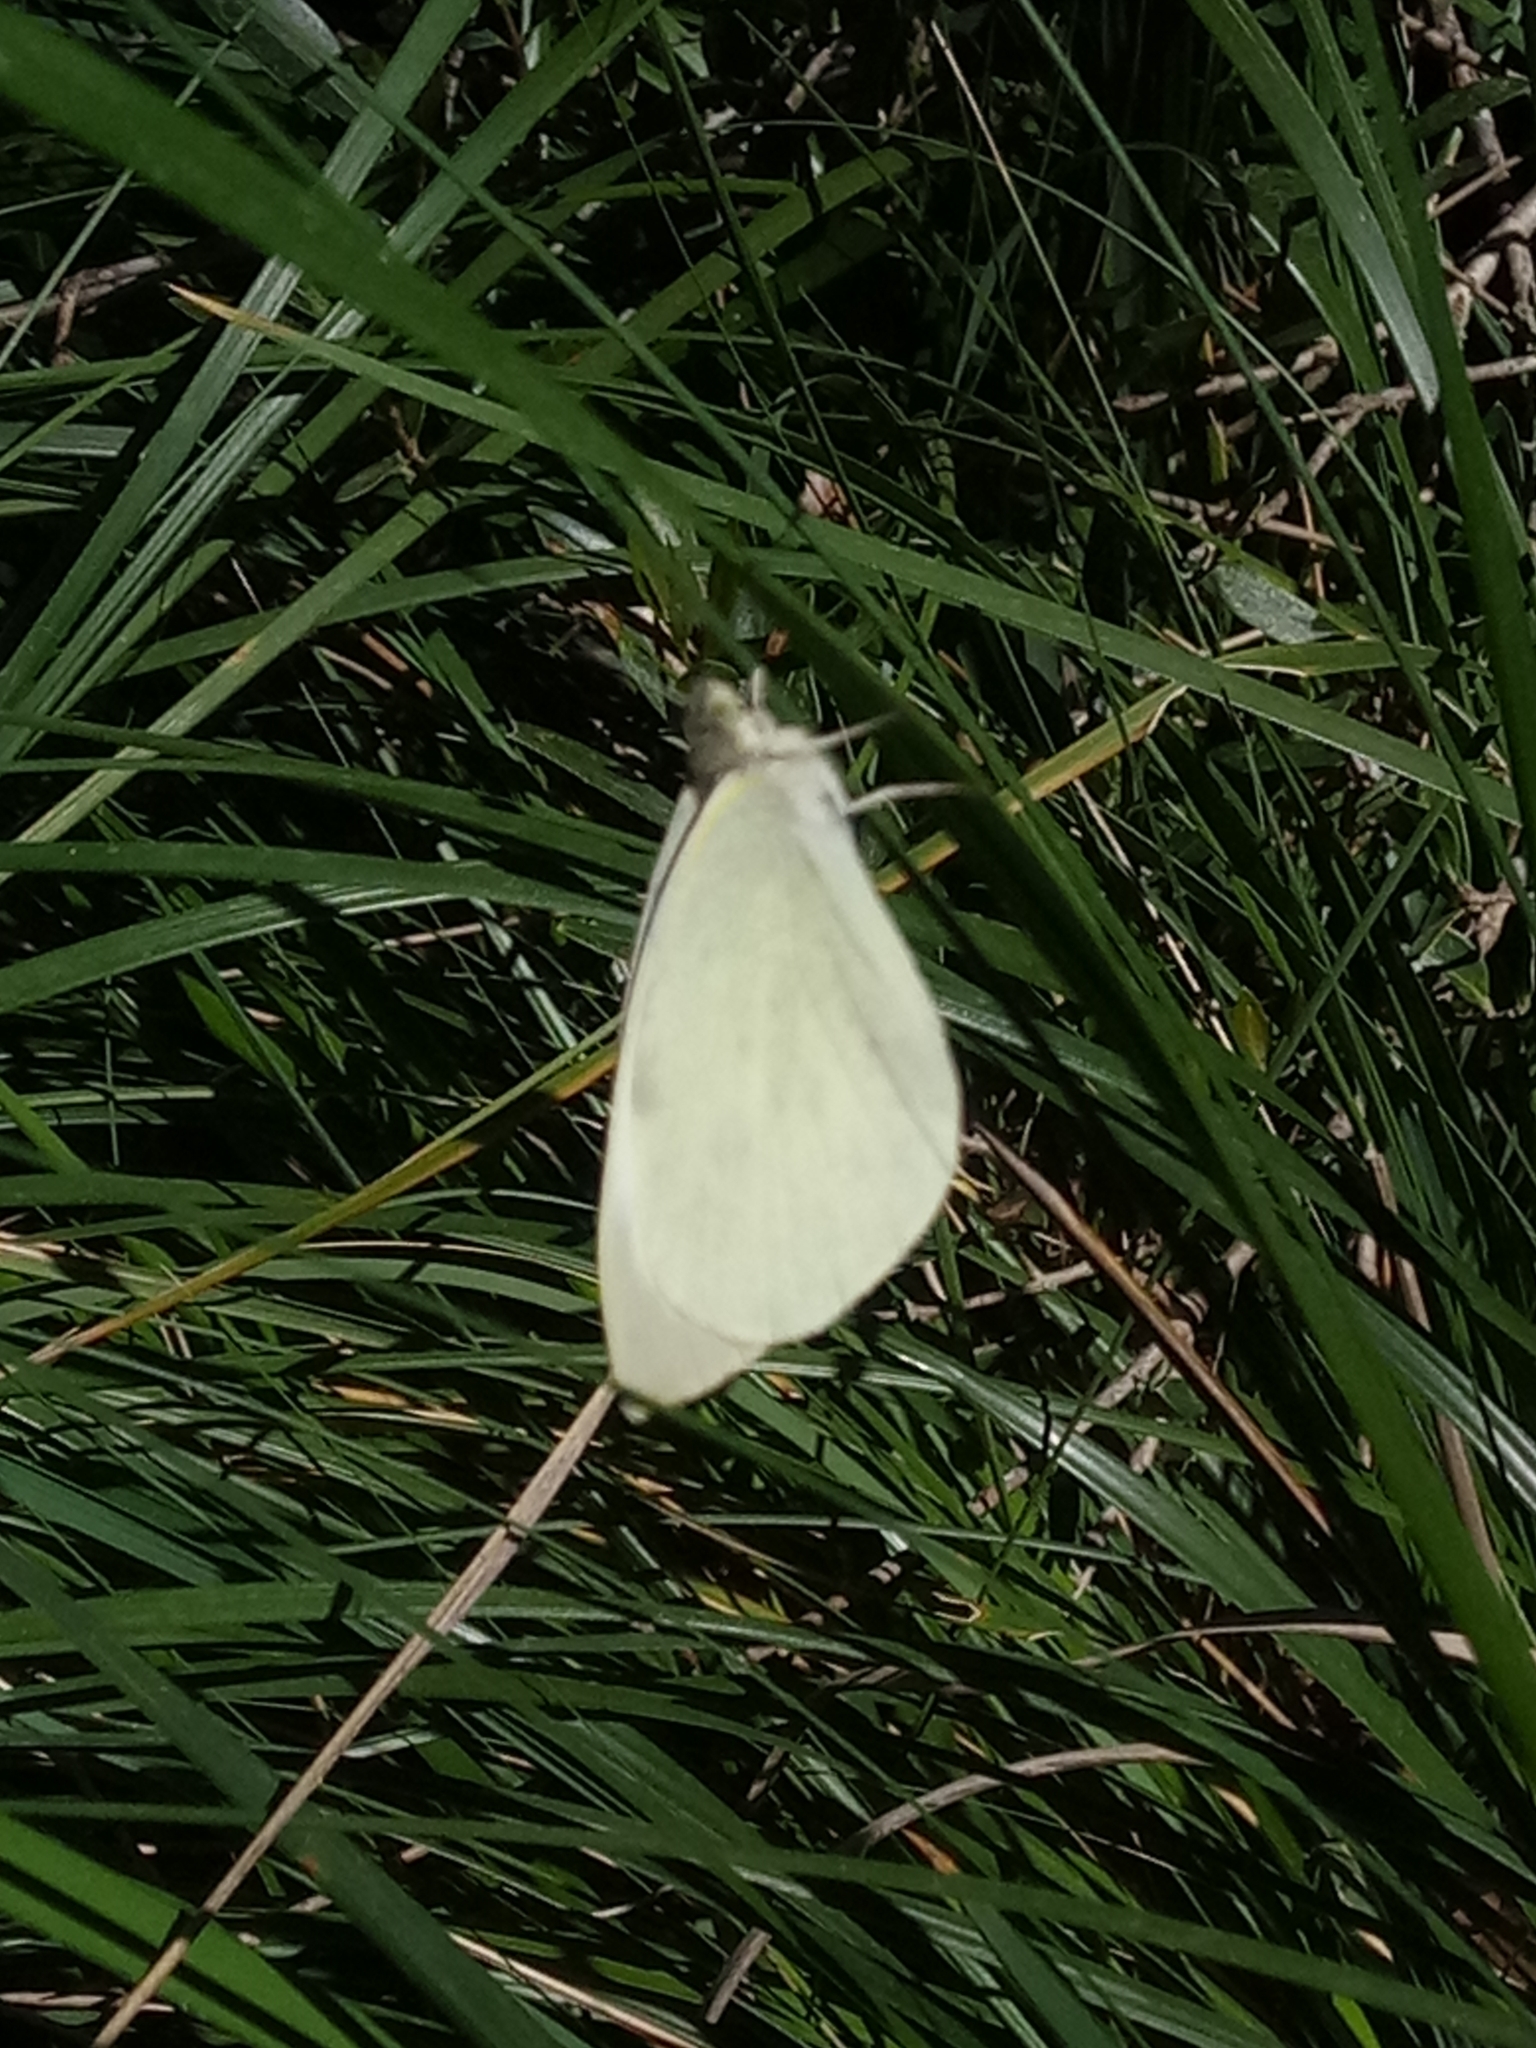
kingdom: Animalia
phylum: Arthropoda
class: Insecta
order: Lepidoptera
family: Pieridae
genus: Pieris
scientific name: Pieris brassicae
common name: Large white
